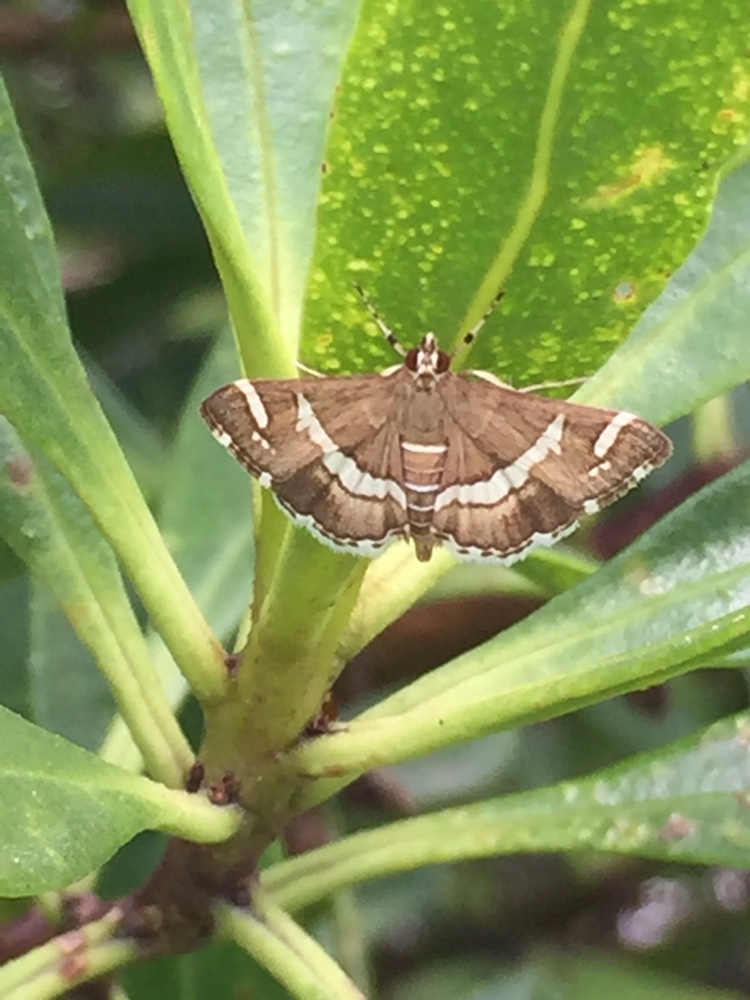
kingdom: Animalia
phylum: Arthropoda
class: Insecta
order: Lepidoptera
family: Crambidae
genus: Spoladea
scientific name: Spoladea recurvalis
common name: Beet webworm moth
